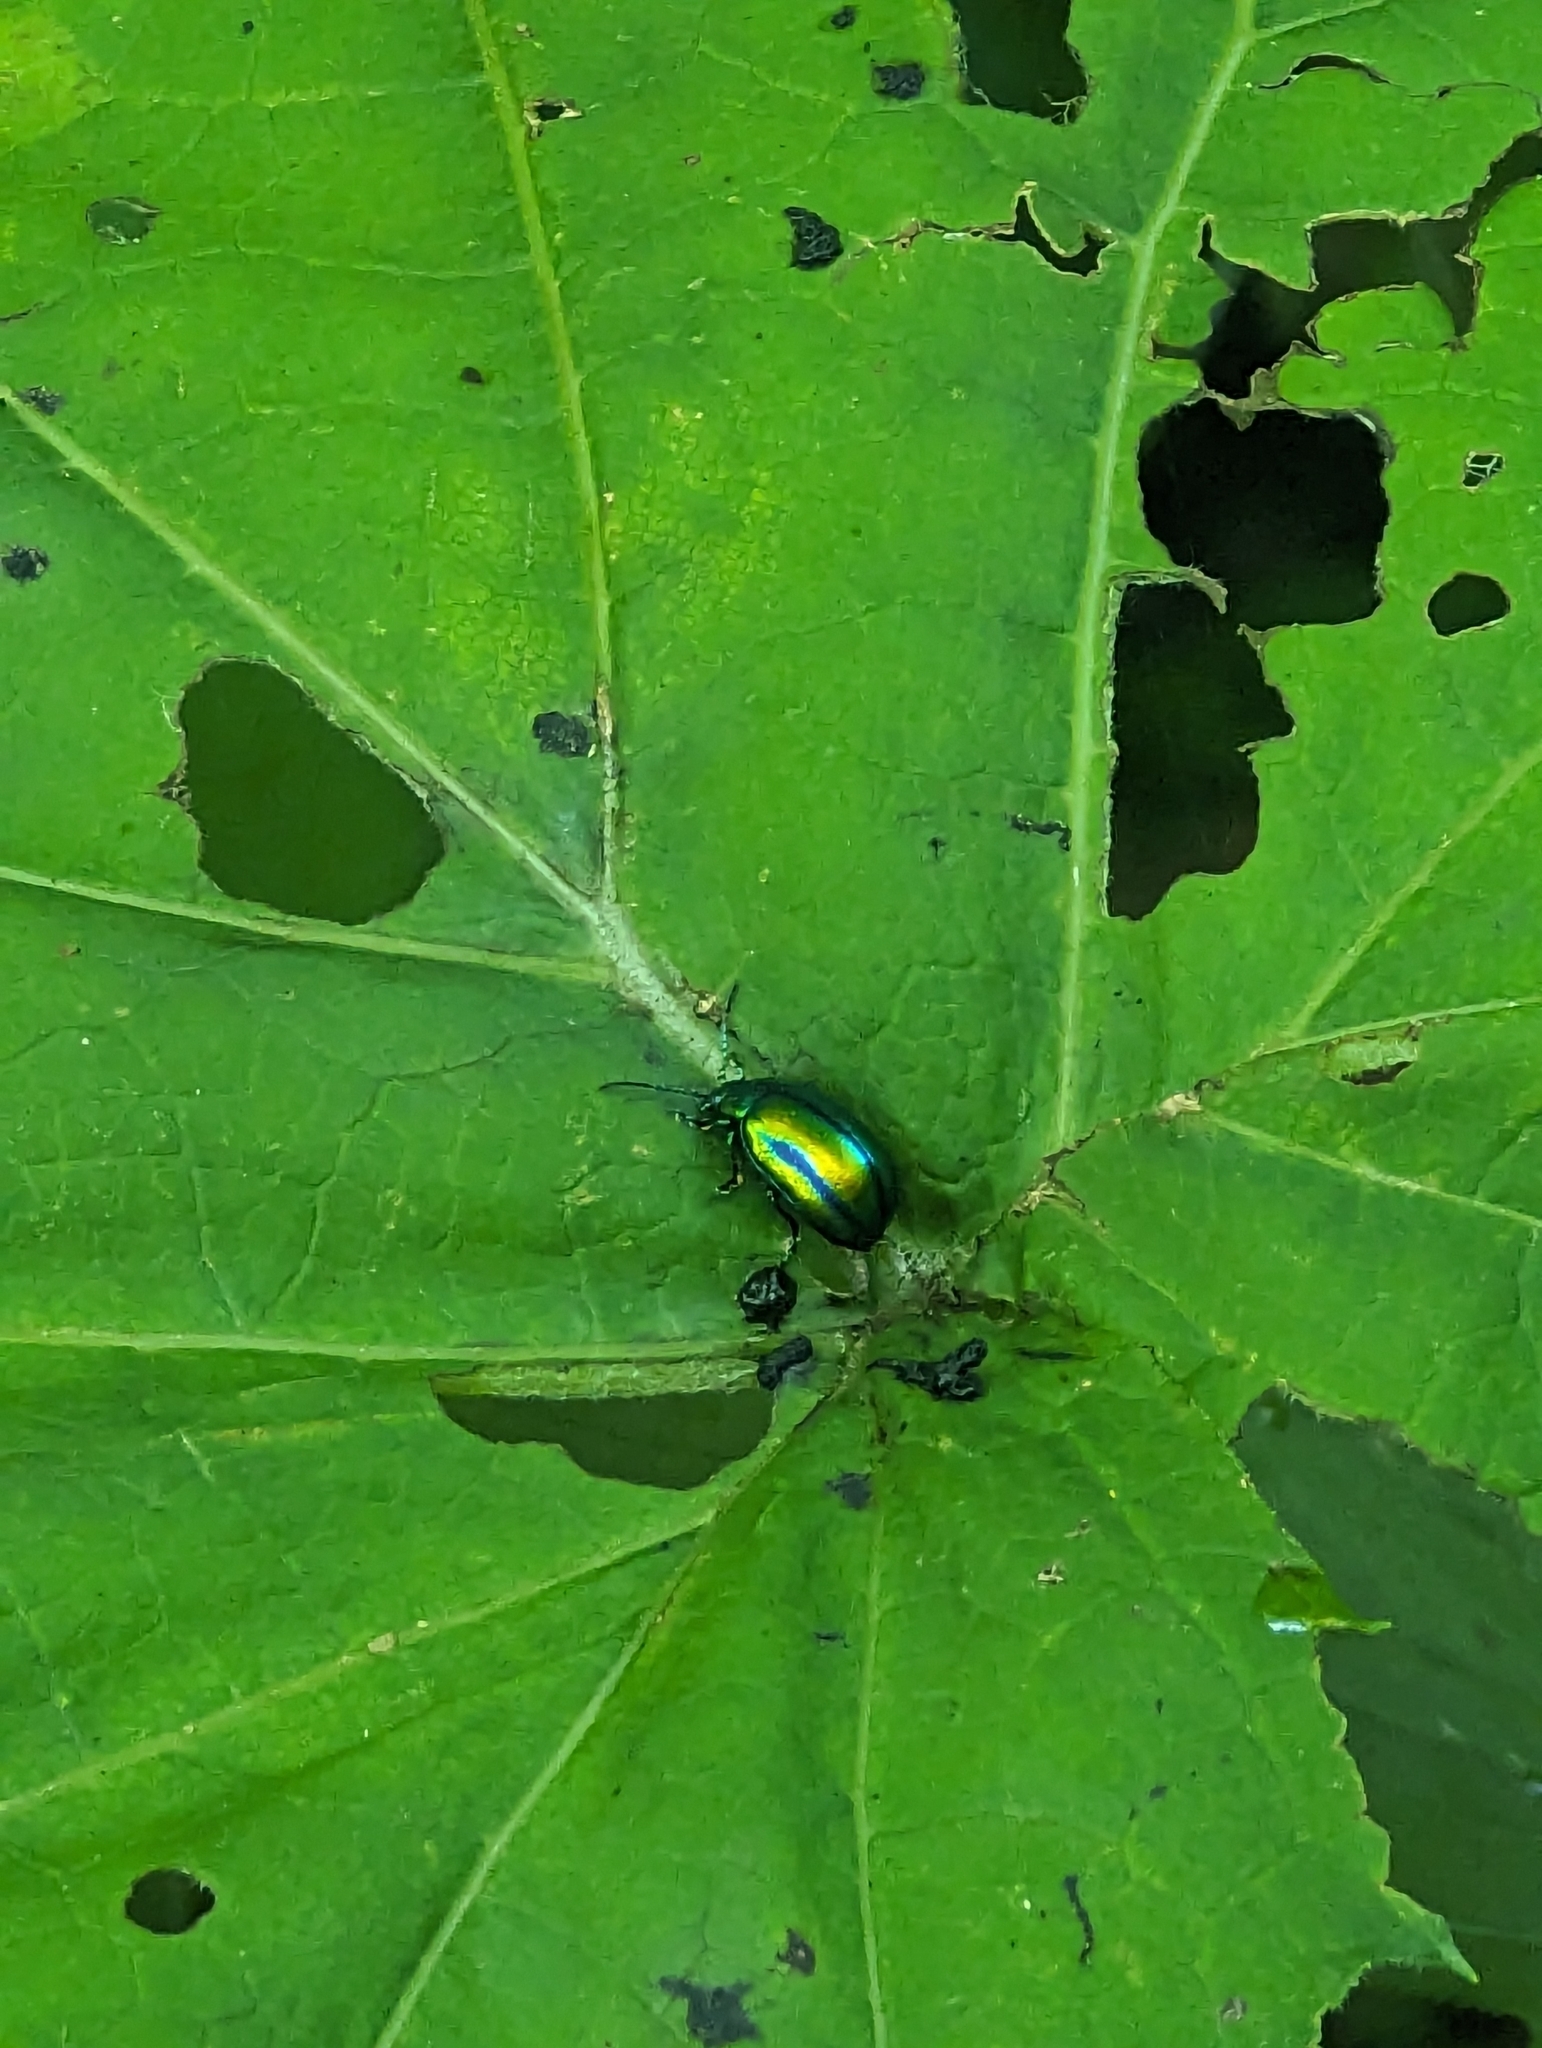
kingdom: Animalia
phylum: Arthropoda
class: Insecta
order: Coleoptera
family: Chrysomelidae
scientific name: Chrysomelidae
